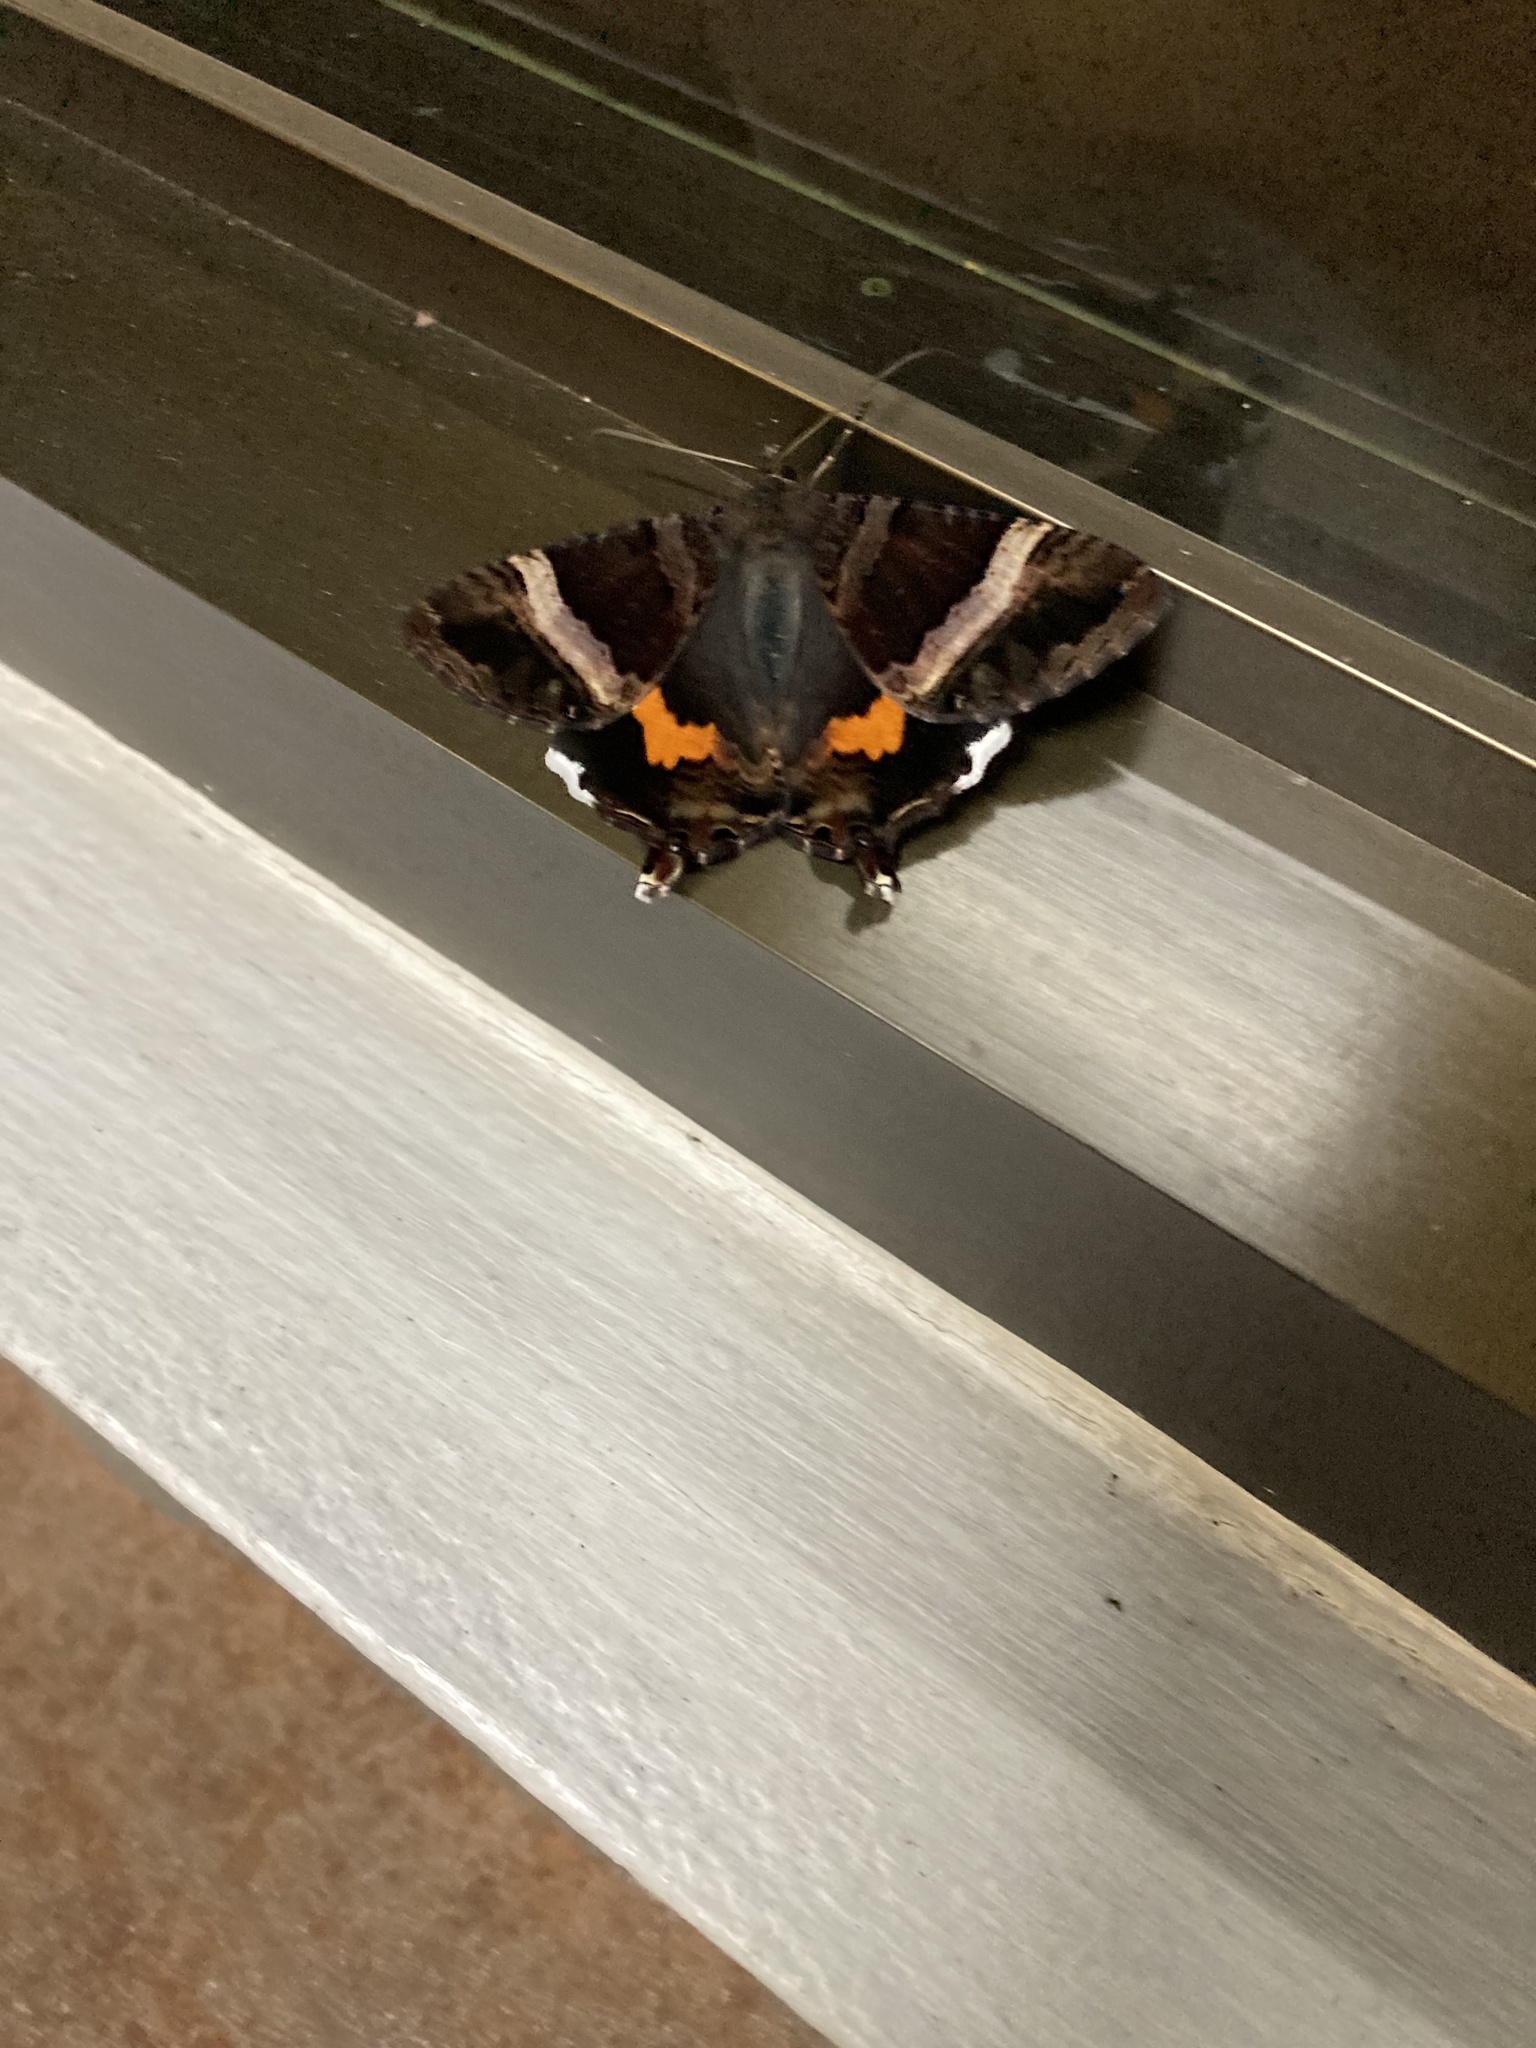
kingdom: Animalia
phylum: Arthropoda
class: Insecta
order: Lepidoptera
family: Sematuridae
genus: Coronidia
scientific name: Coronidia leachii
